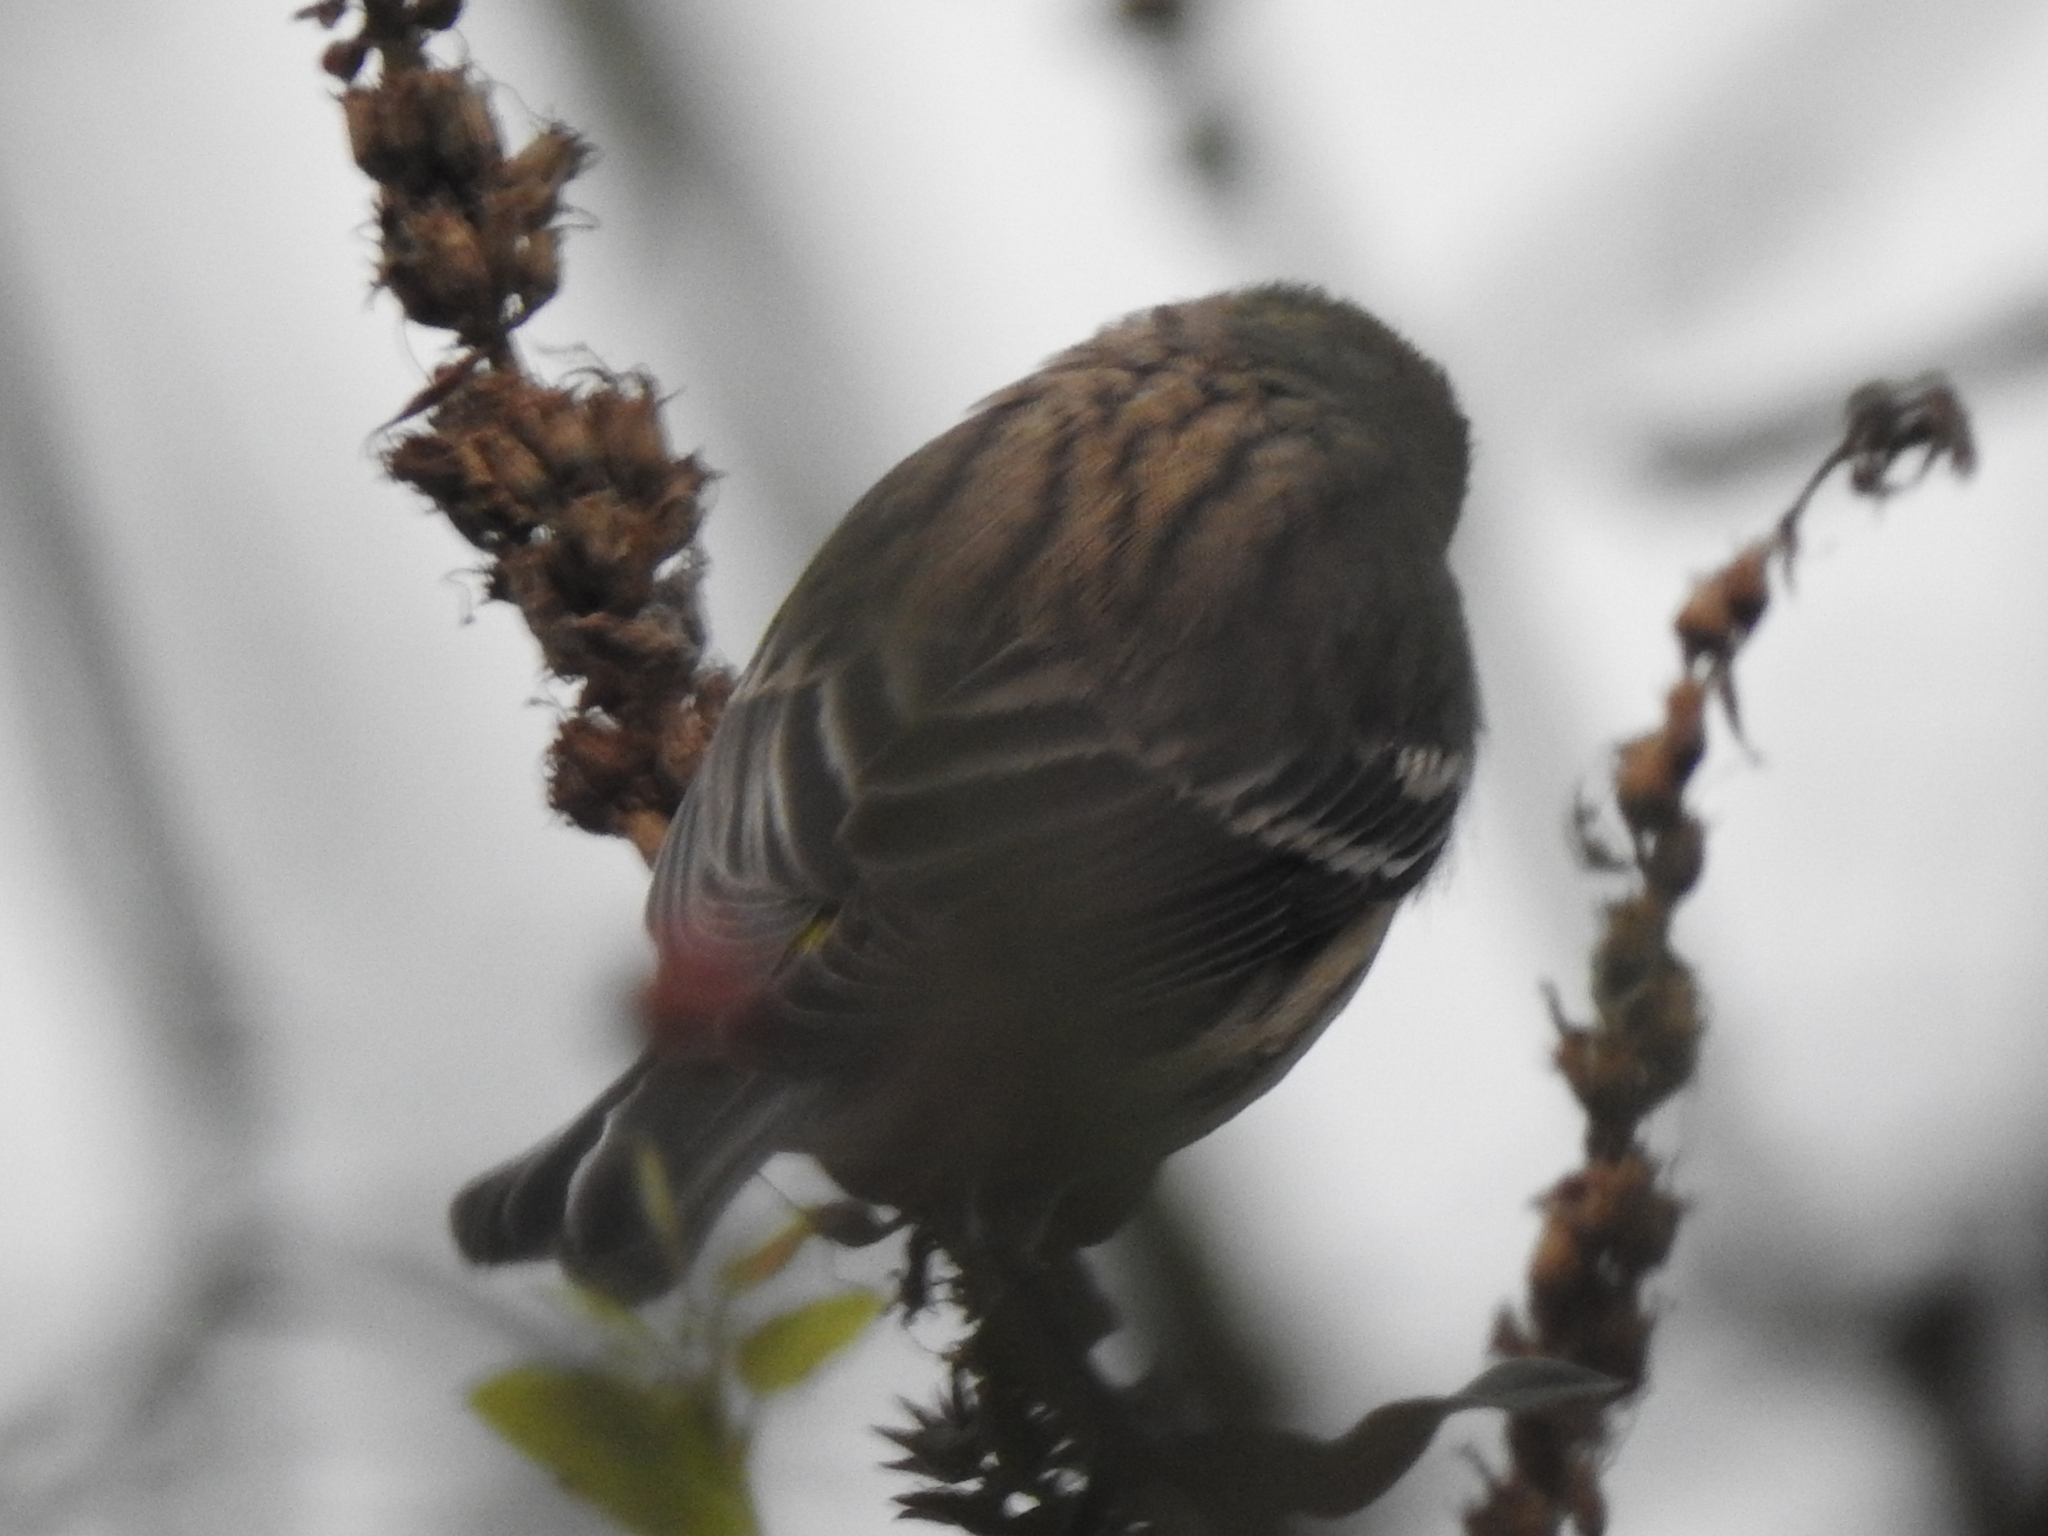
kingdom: Animalia
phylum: Chordata
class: Aves
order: Passeriformes
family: Parulidae
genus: Setophaga
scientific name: Setophaga coronata
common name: Myrtle warbler
